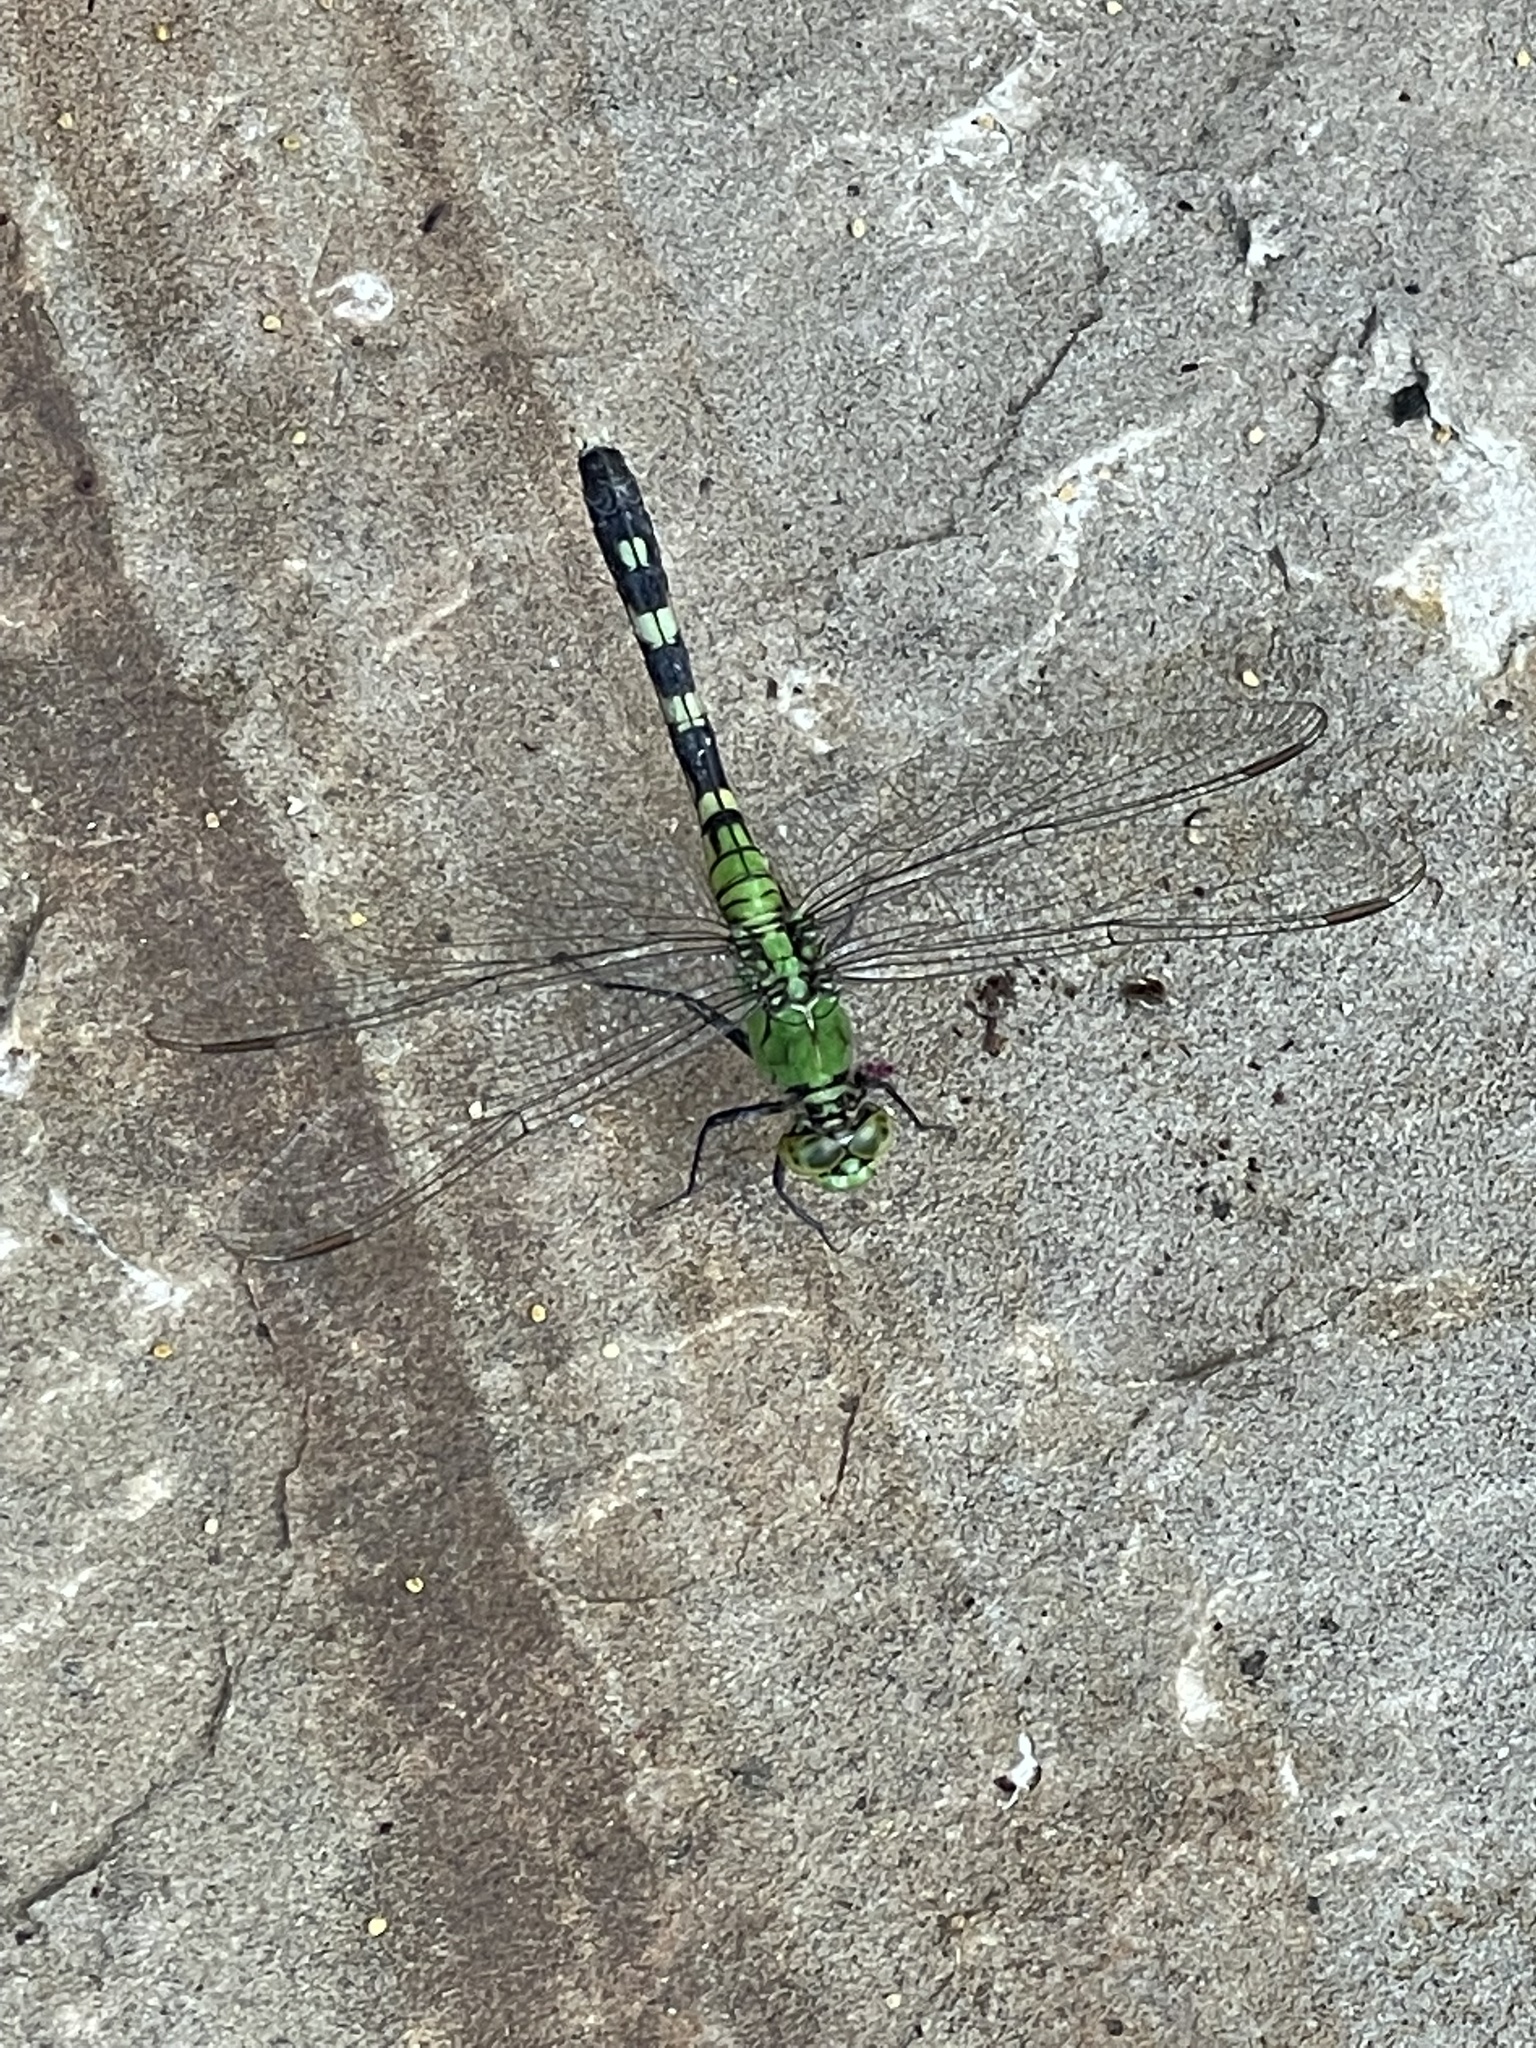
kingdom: Animalia
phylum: Arthropoda
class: Insecta
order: Odonata
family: Libellulidae
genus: Erythemis
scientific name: Erythemis simplicicollis
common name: Eastern pondhawk
